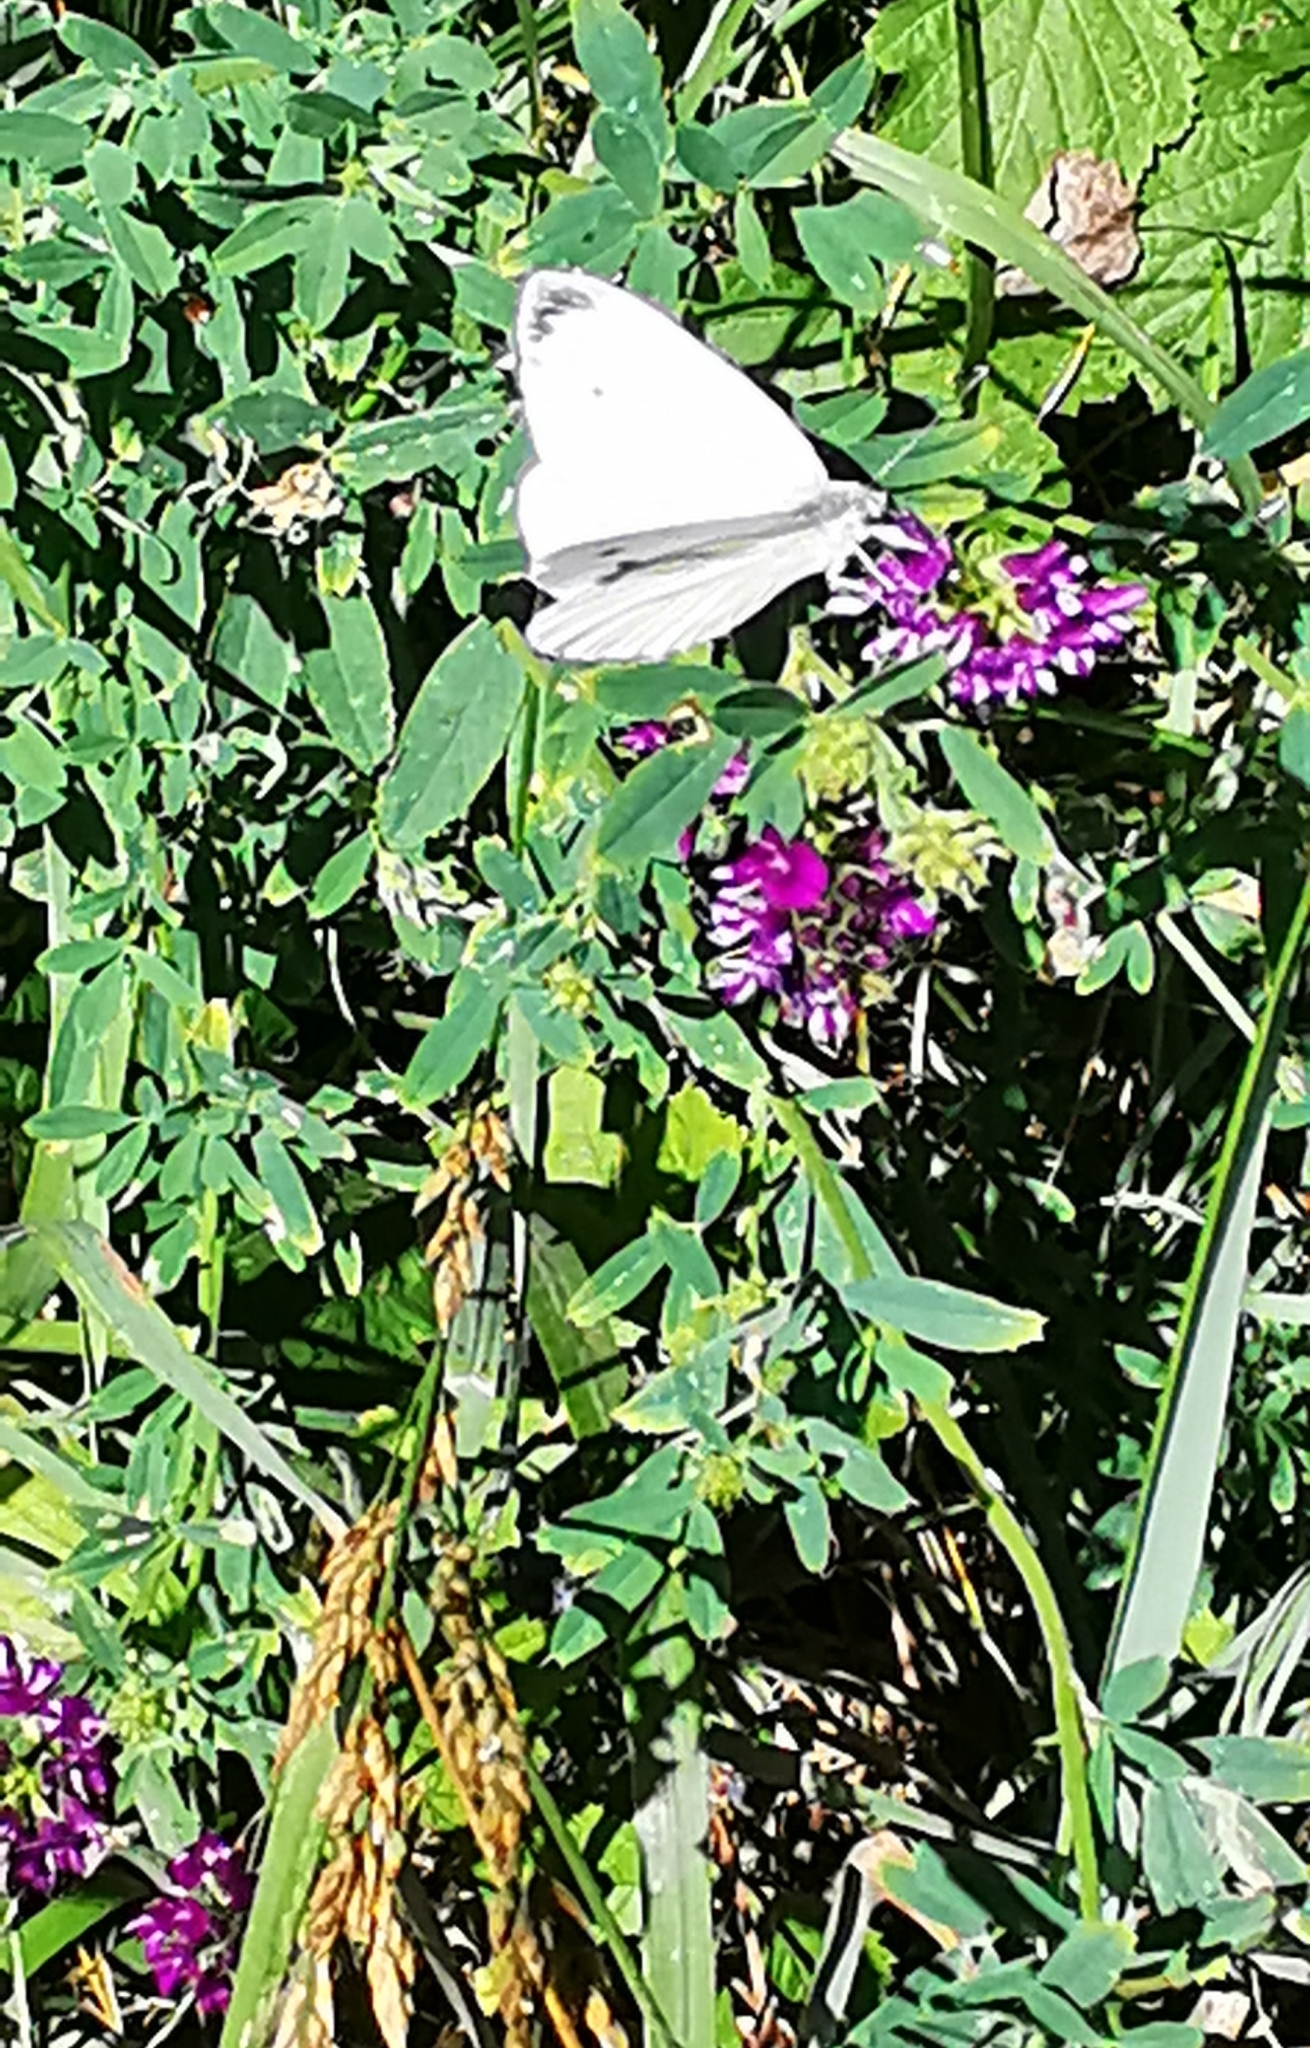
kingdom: Plantae
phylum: Tracheophyta
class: Magnoliopsida
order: Fabales
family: Fabaceae
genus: Medicago
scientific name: Medicago sativa
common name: Alfalfa
